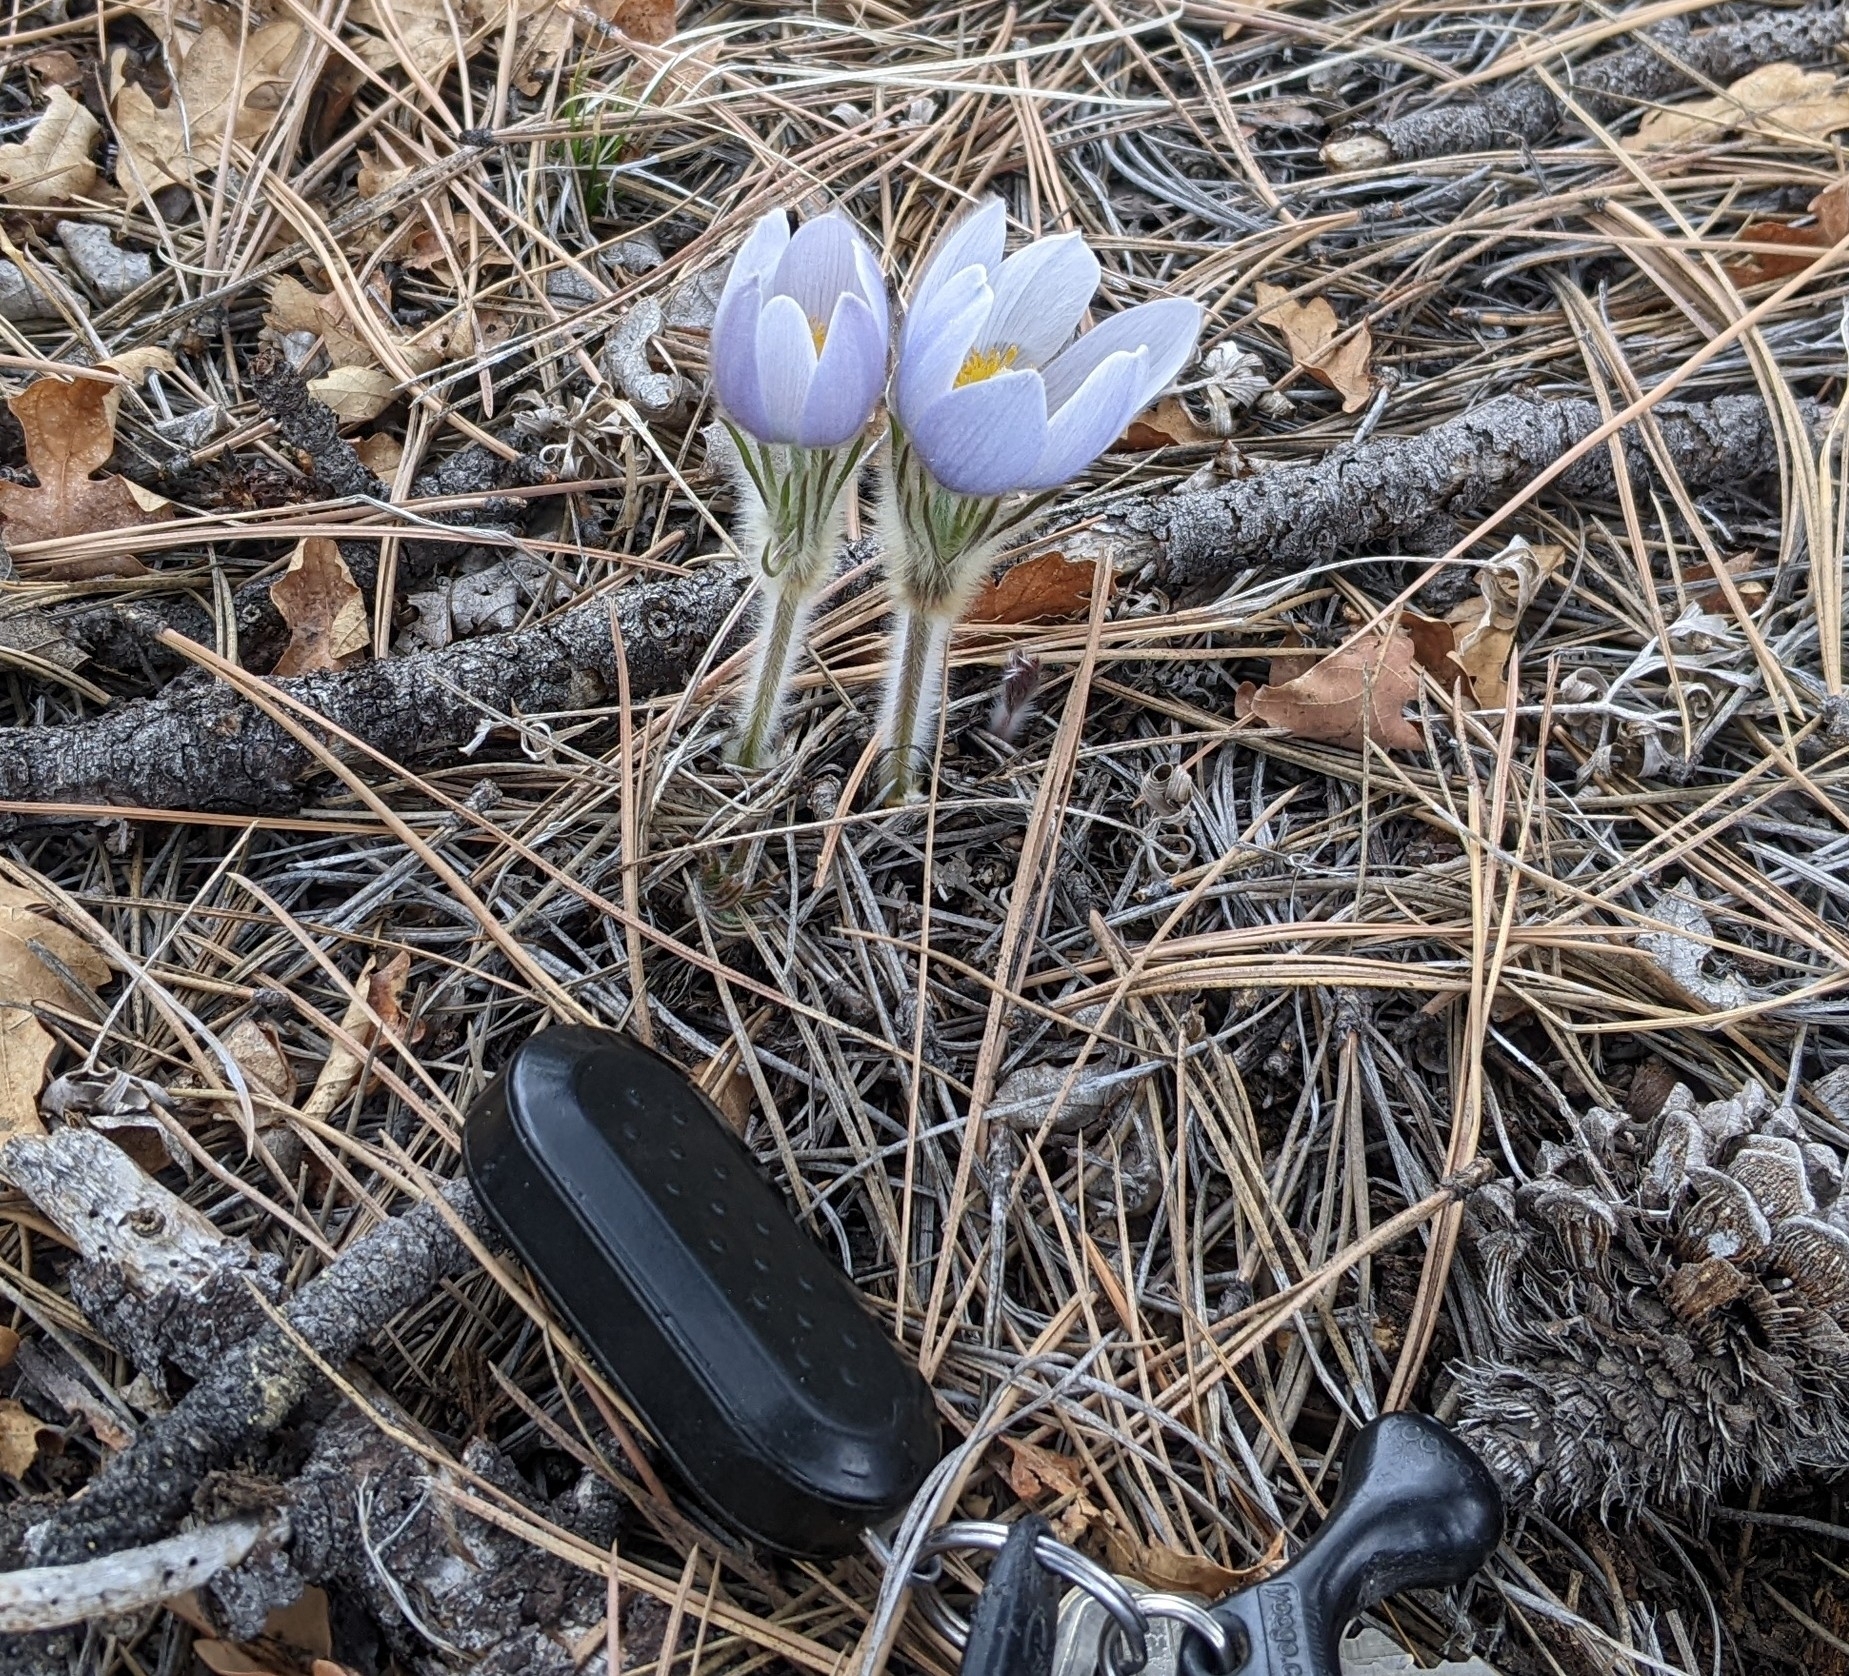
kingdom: Plantae
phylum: Tracheophyta
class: Magnoliopsida
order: Ranunculales
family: Ranunculaceae
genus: Pulsatilla
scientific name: Pulsatilla nuttalliana
